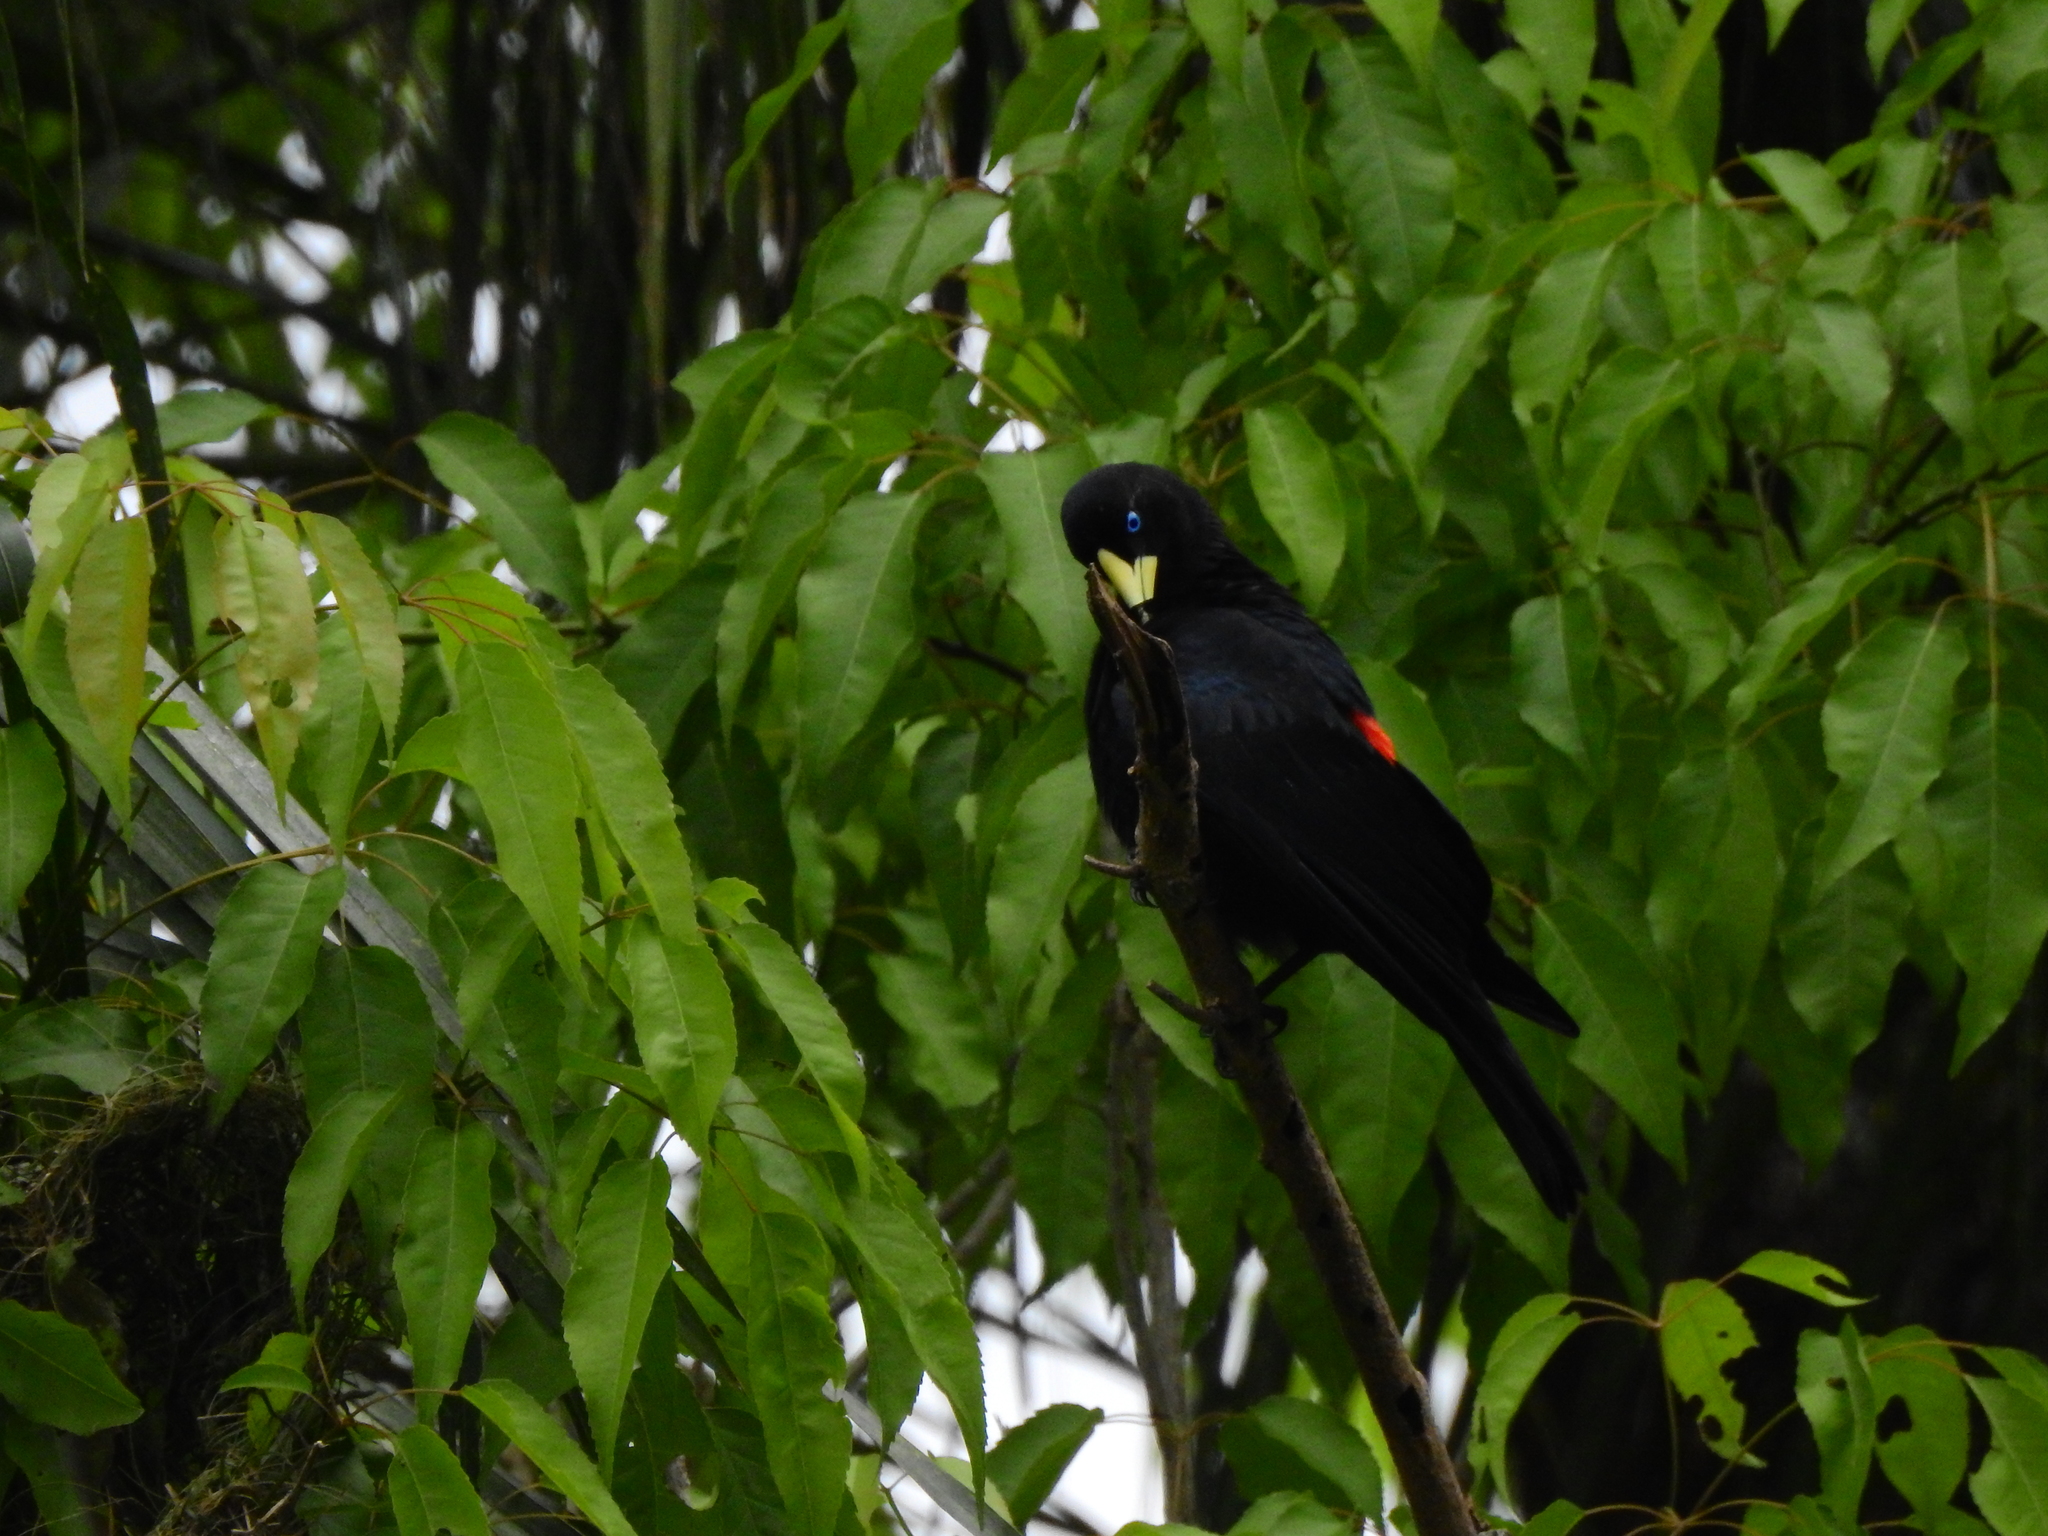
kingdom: Animalia
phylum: Chordata
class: Aves
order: Passeriformes
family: Icteridae
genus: Cacicus
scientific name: Cacicus haemorrhous
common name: Red-rumped cacique
